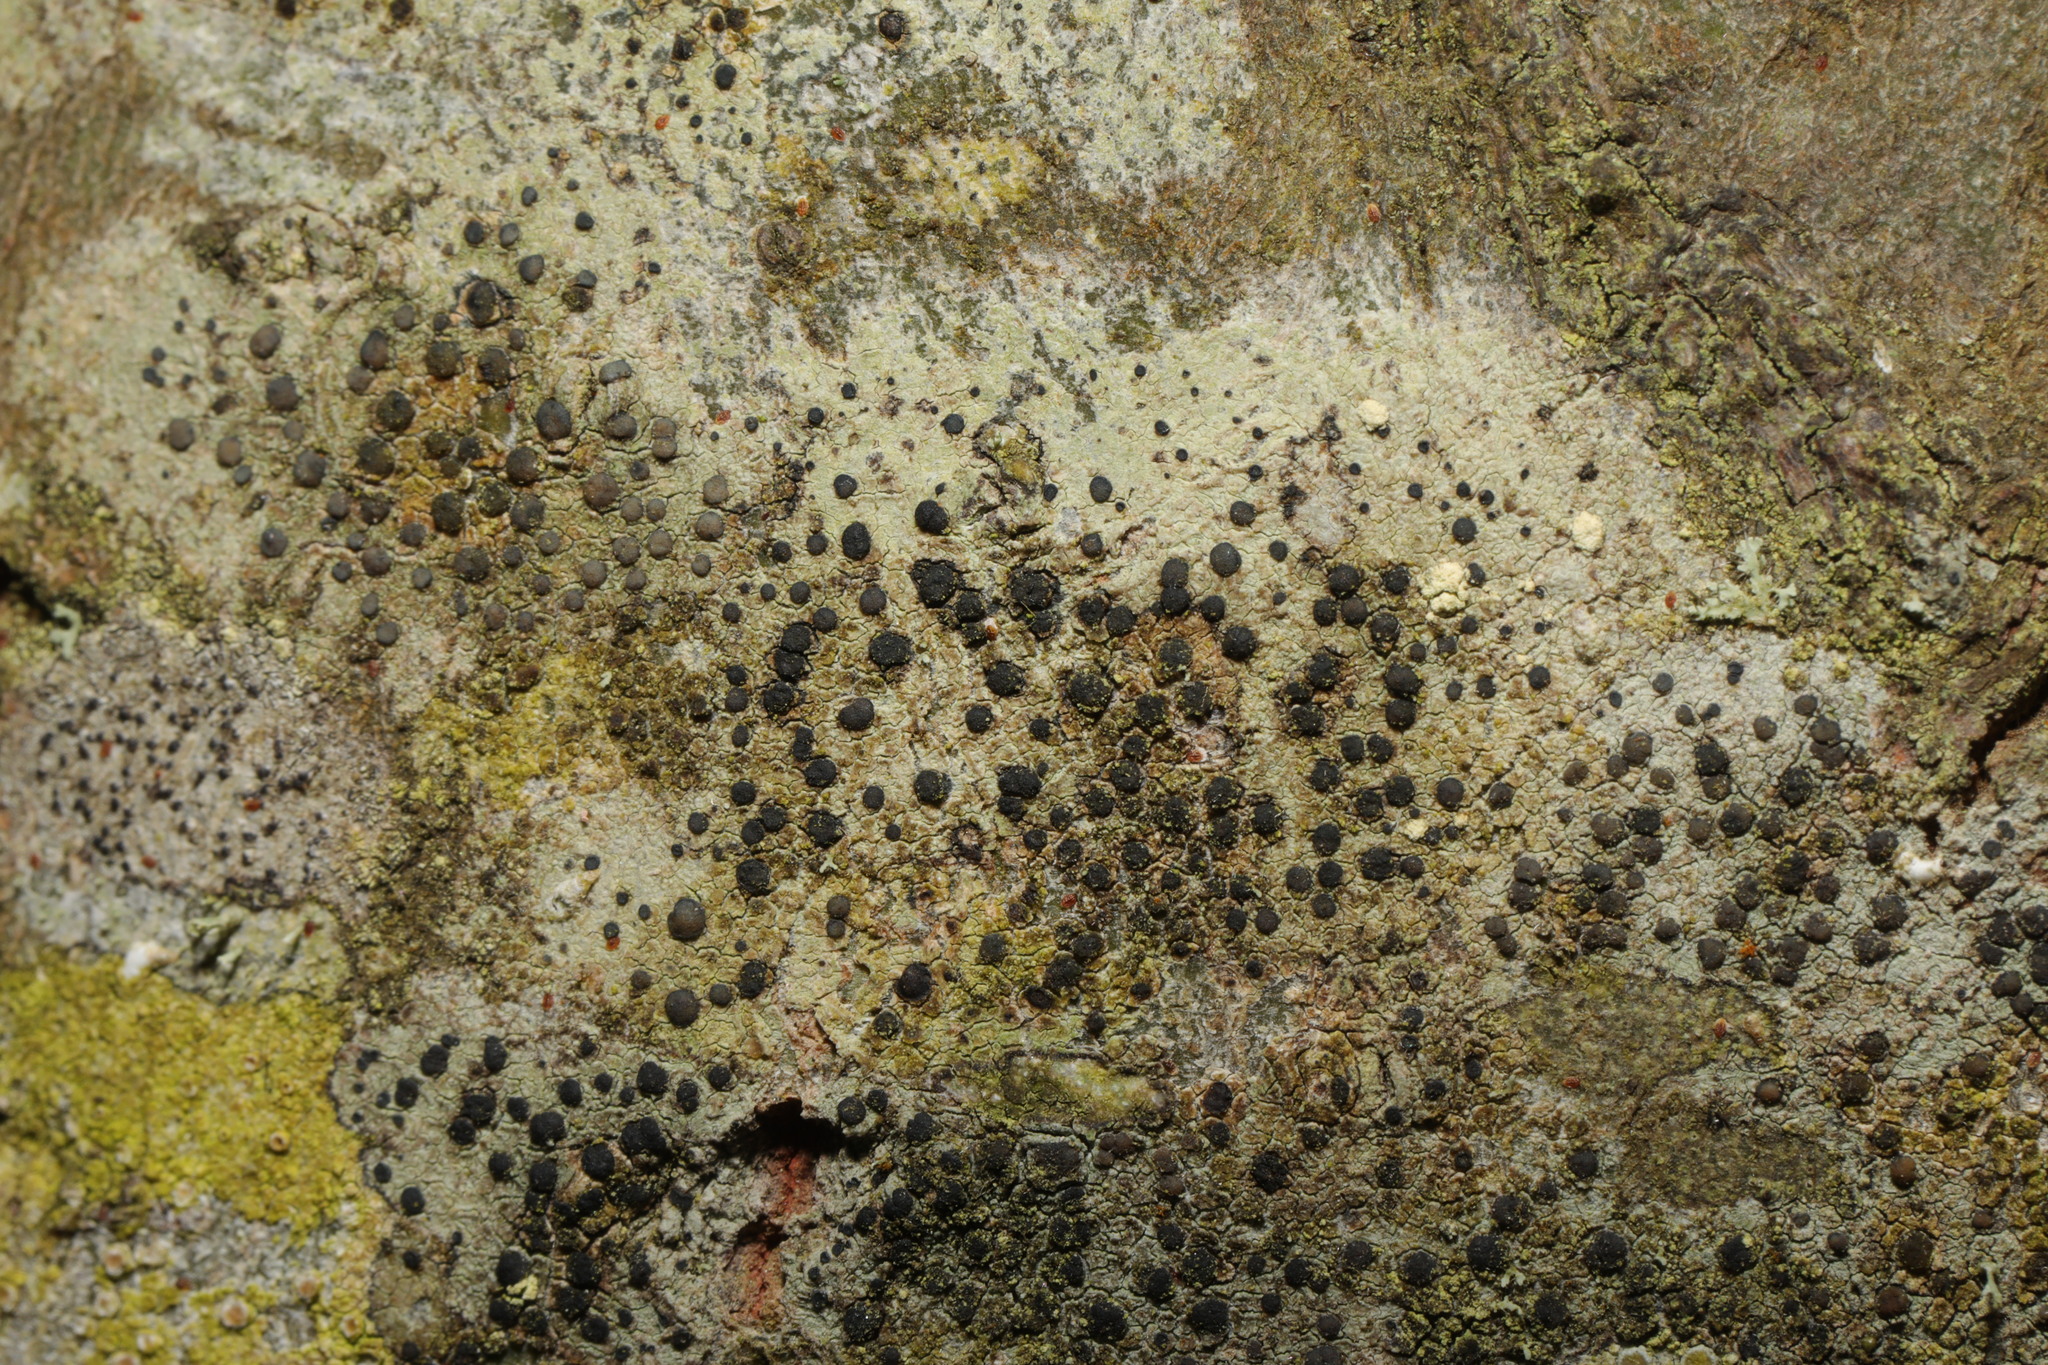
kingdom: Fungi
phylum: Ascomycota
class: Lecanoromycetes
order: Lecanorales
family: Lecanoraceae
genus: Lecidella
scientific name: Lecidella elaeochroma
